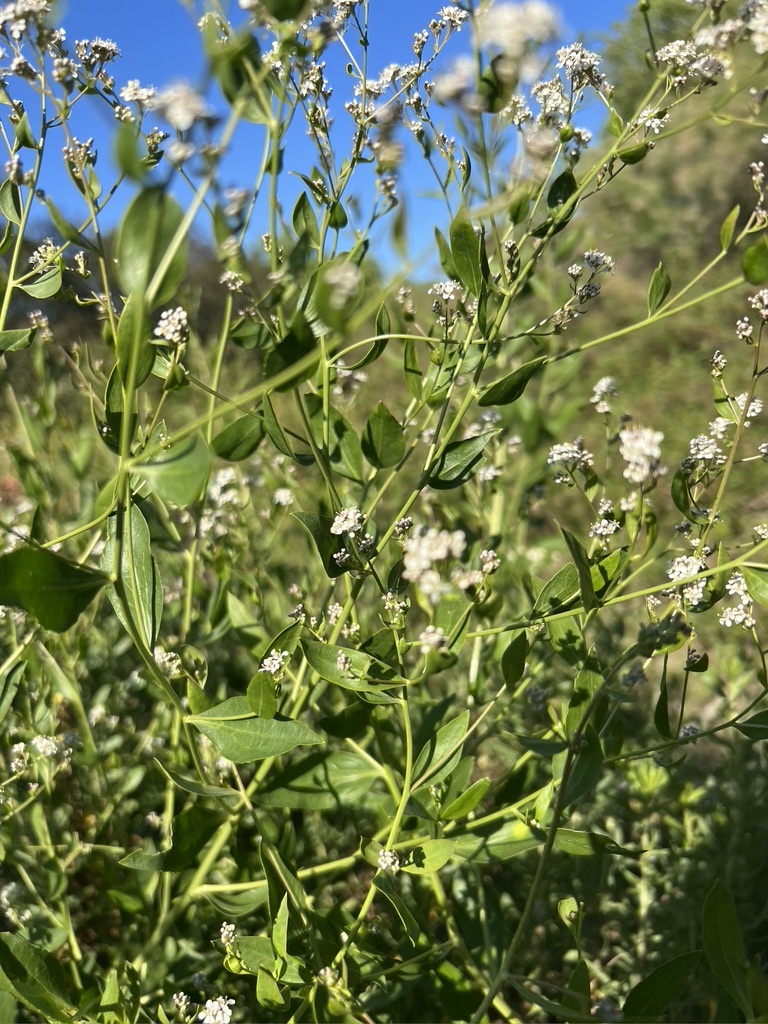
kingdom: Plantae
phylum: Tracheophyta
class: Magnoliopsida
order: Brassicales
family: Brassicaceae
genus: Lepidium
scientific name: Lepidium latifolium
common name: Dittander
